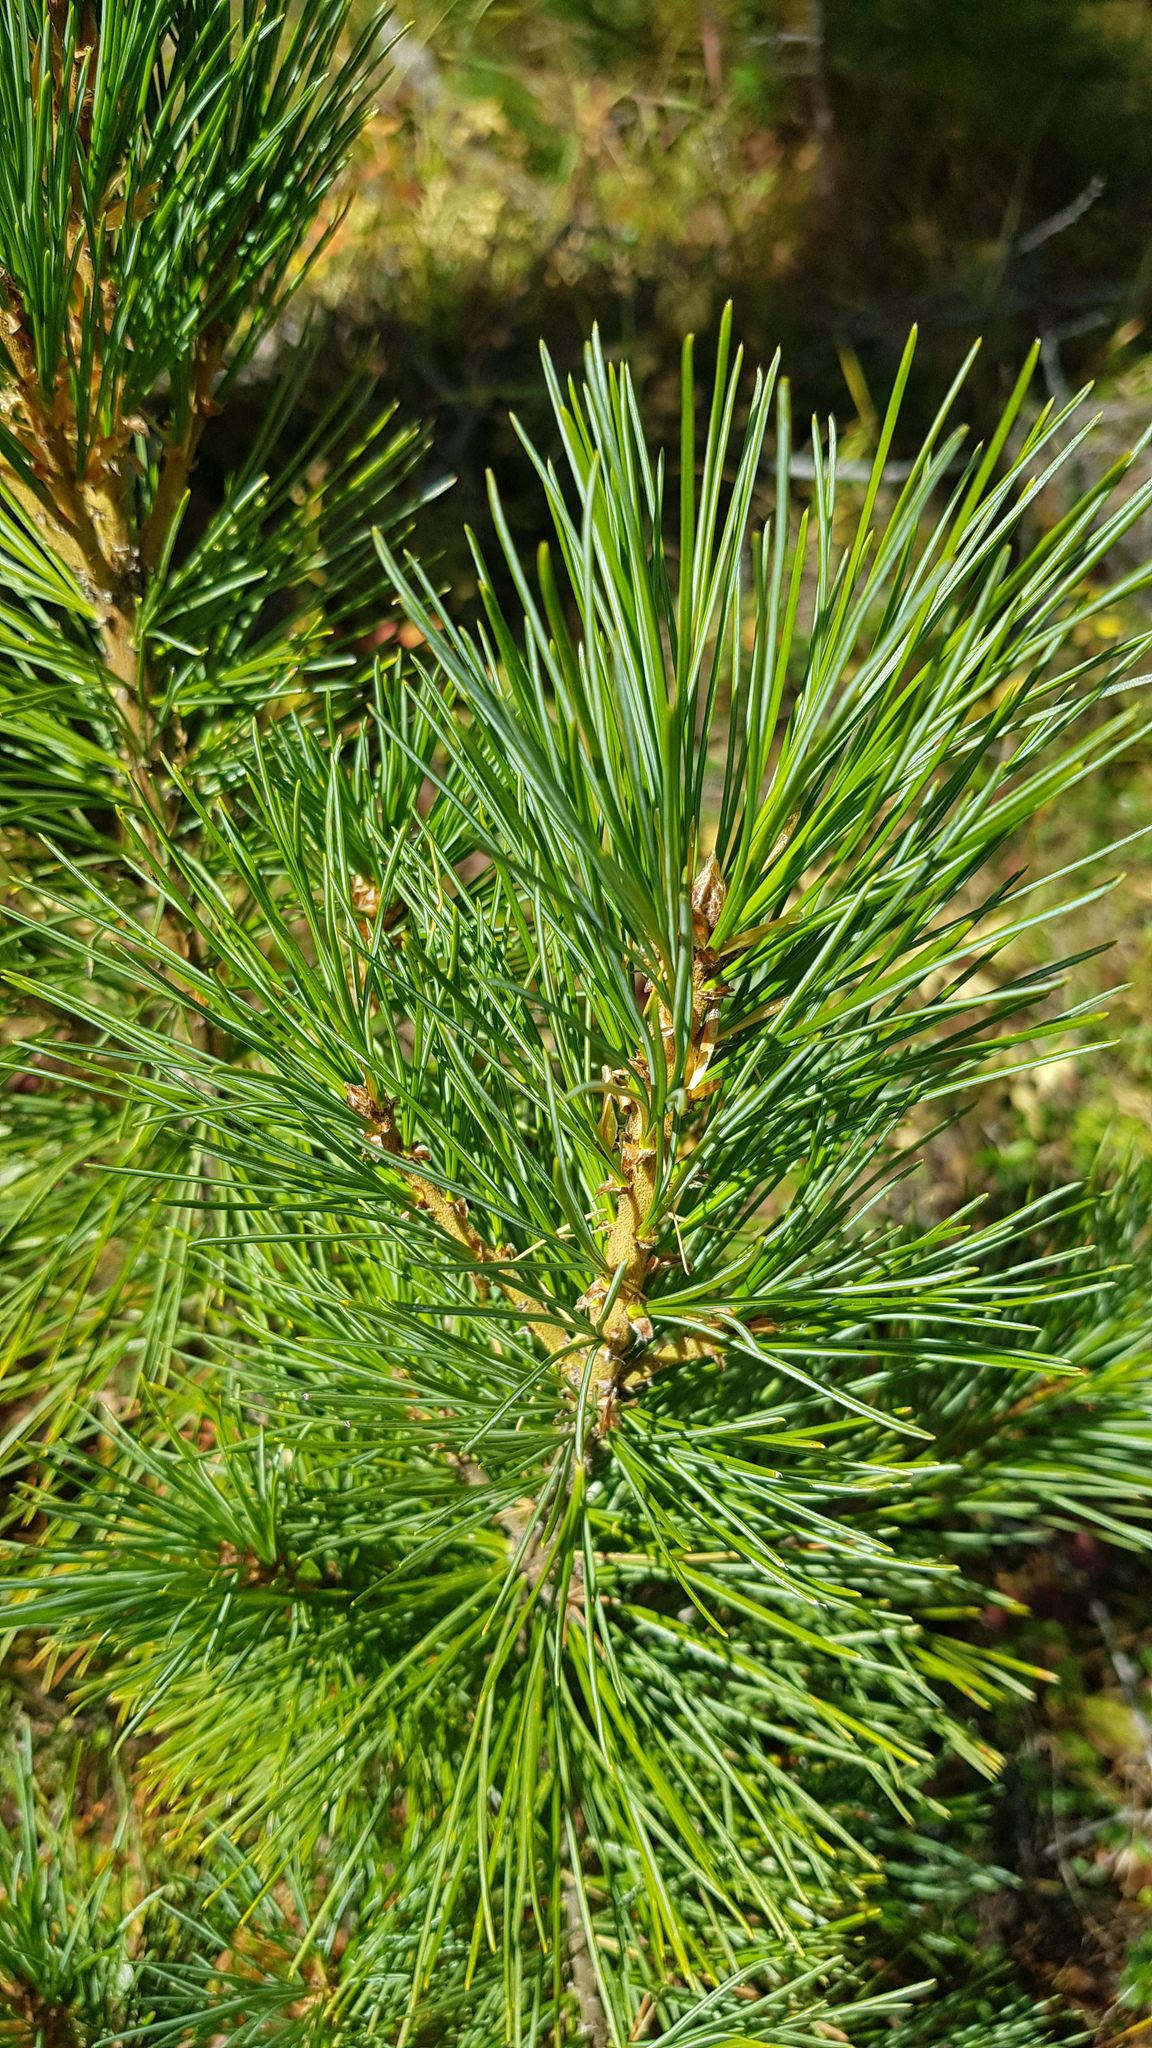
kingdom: Plantae
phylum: Tracheophyta
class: Pinopsida
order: Pinales
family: Pinaceae
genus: Pinus
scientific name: Pinus sibirica
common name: Siberian pine
